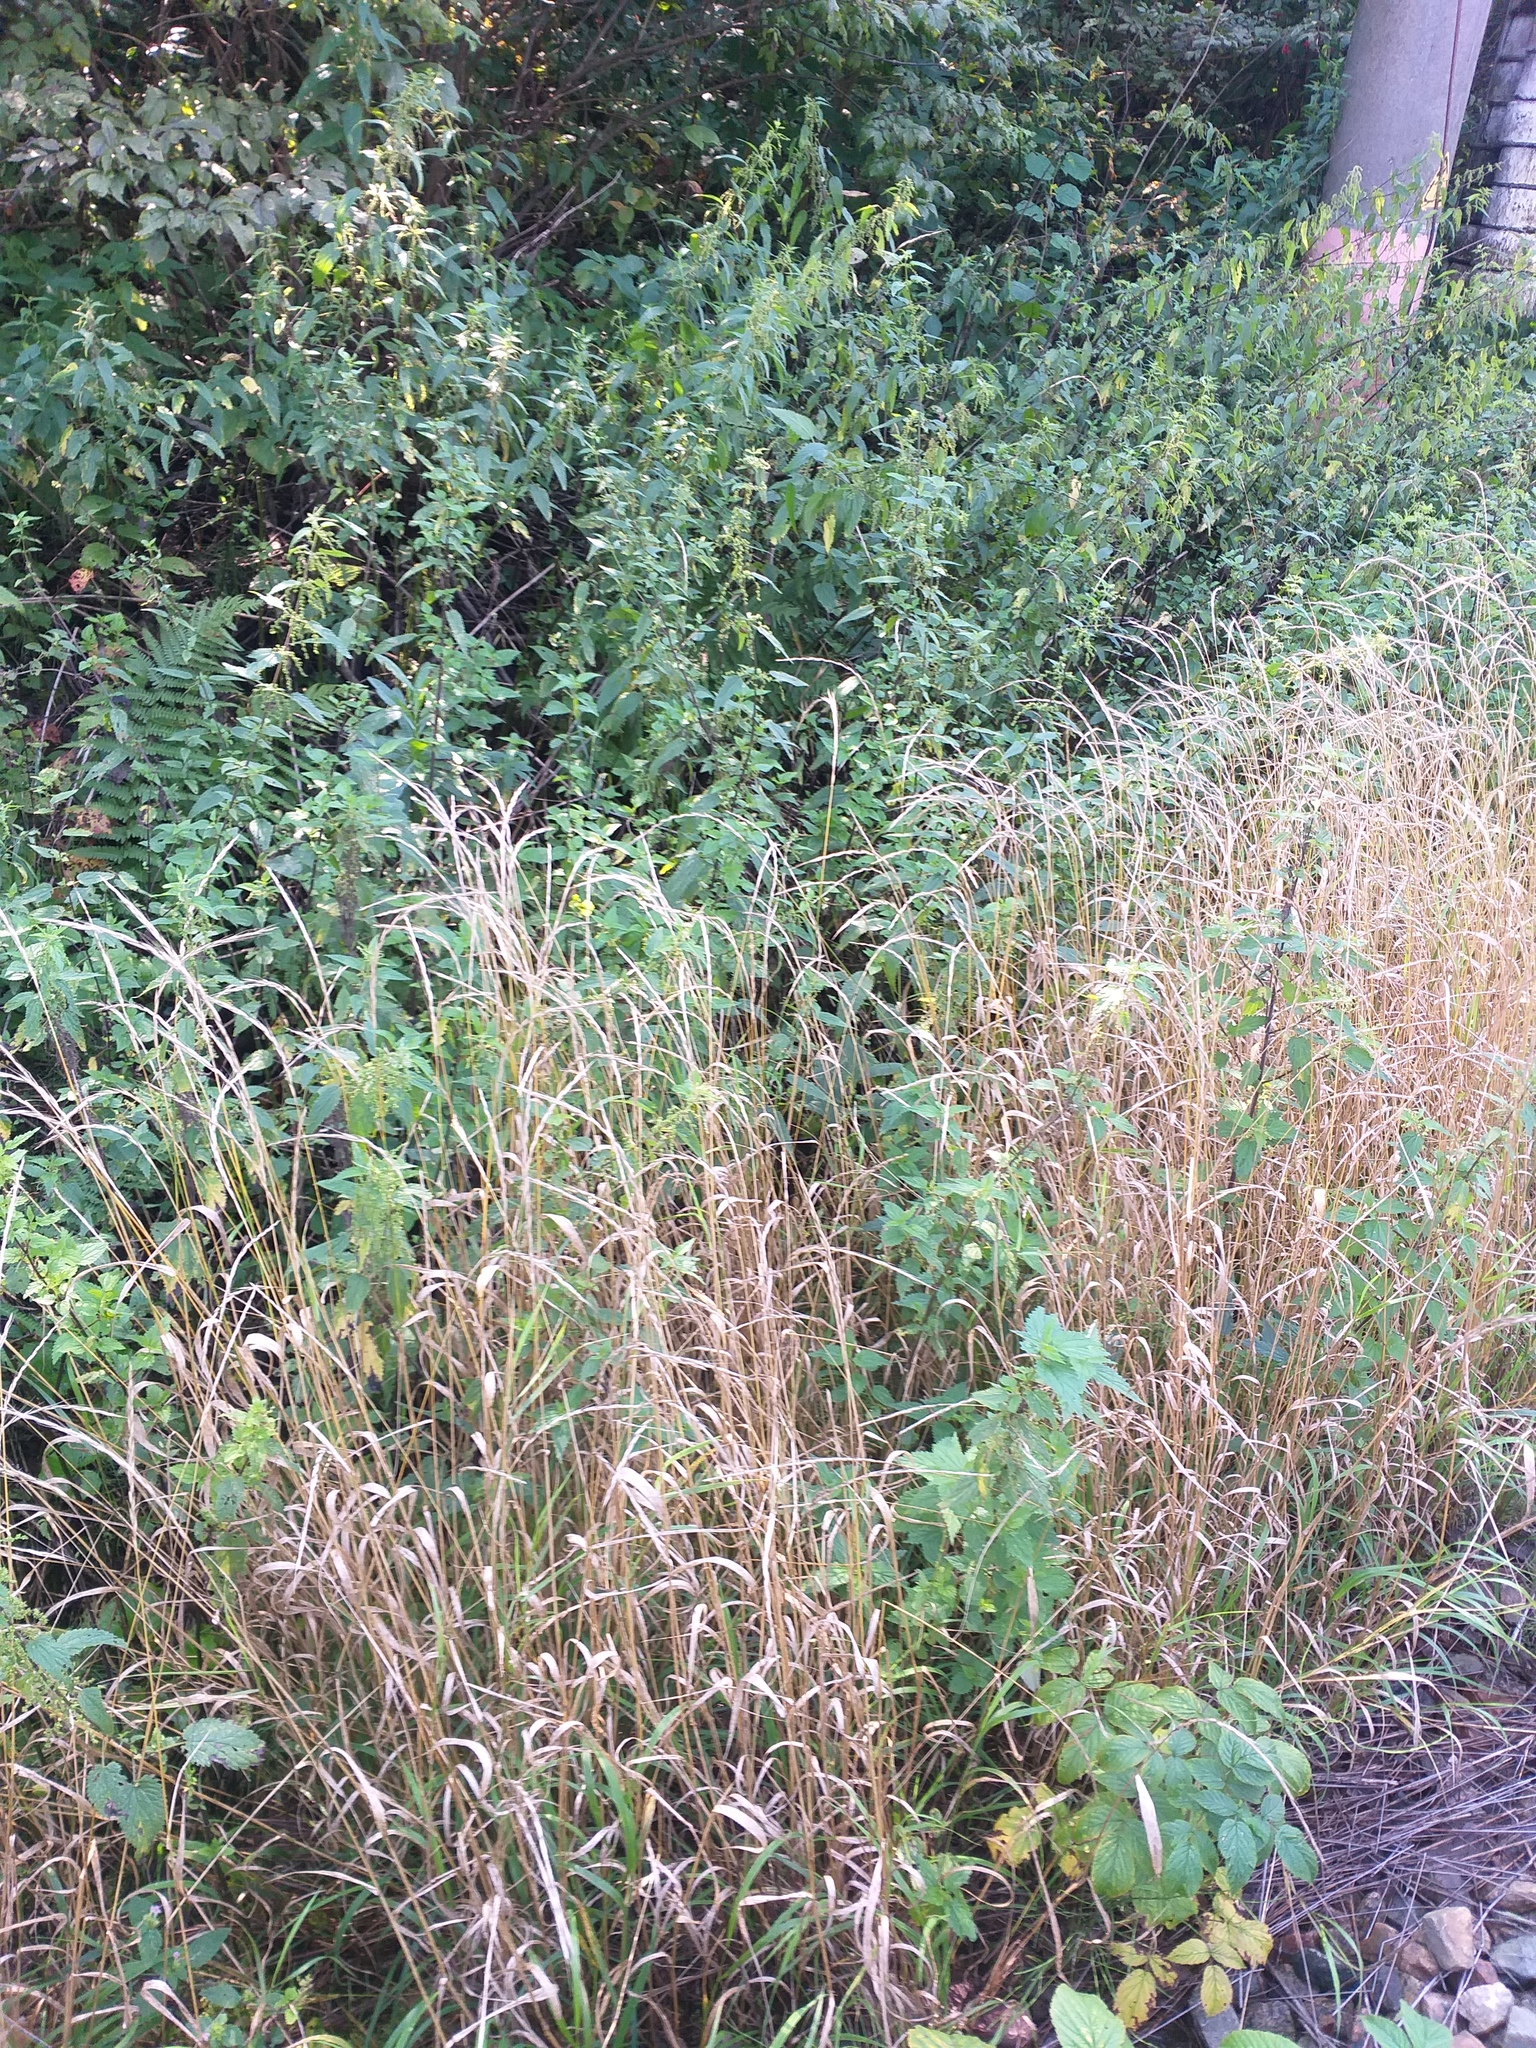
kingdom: Plantae
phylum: Tracheophyta
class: Liliopsida
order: Poales
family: Poaceae
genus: Elymus
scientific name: Elymus caninus
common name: Bearded couch
